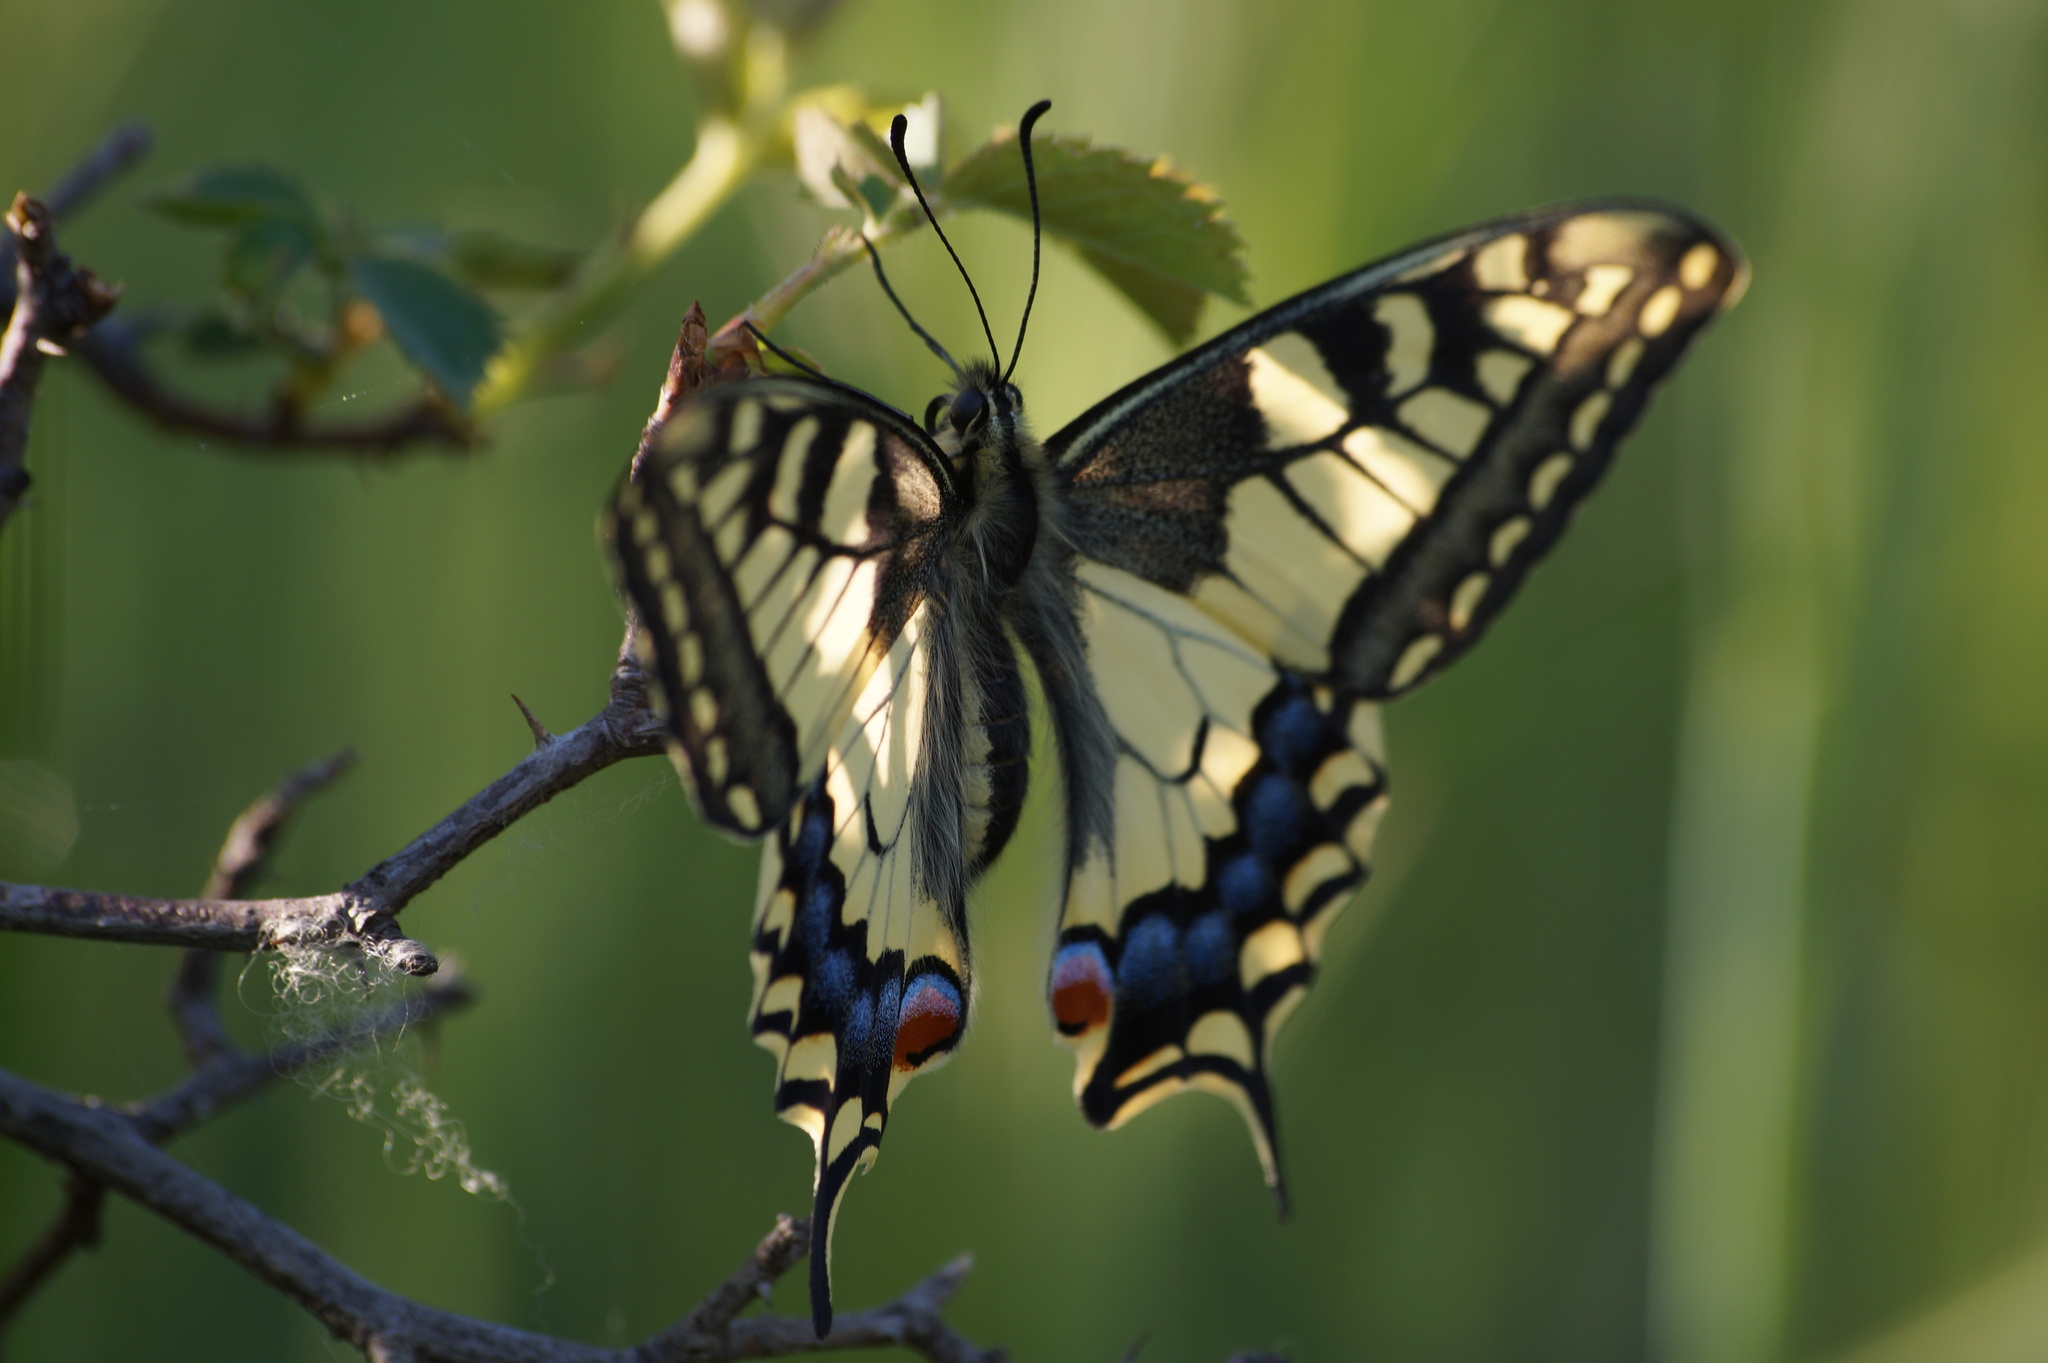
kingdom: Animalia
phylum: Arthropoda
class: Insecta
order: Lepidoptera
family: Papilionidae
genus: Papilio
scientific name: Papilio machaon
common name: Swallowtail
